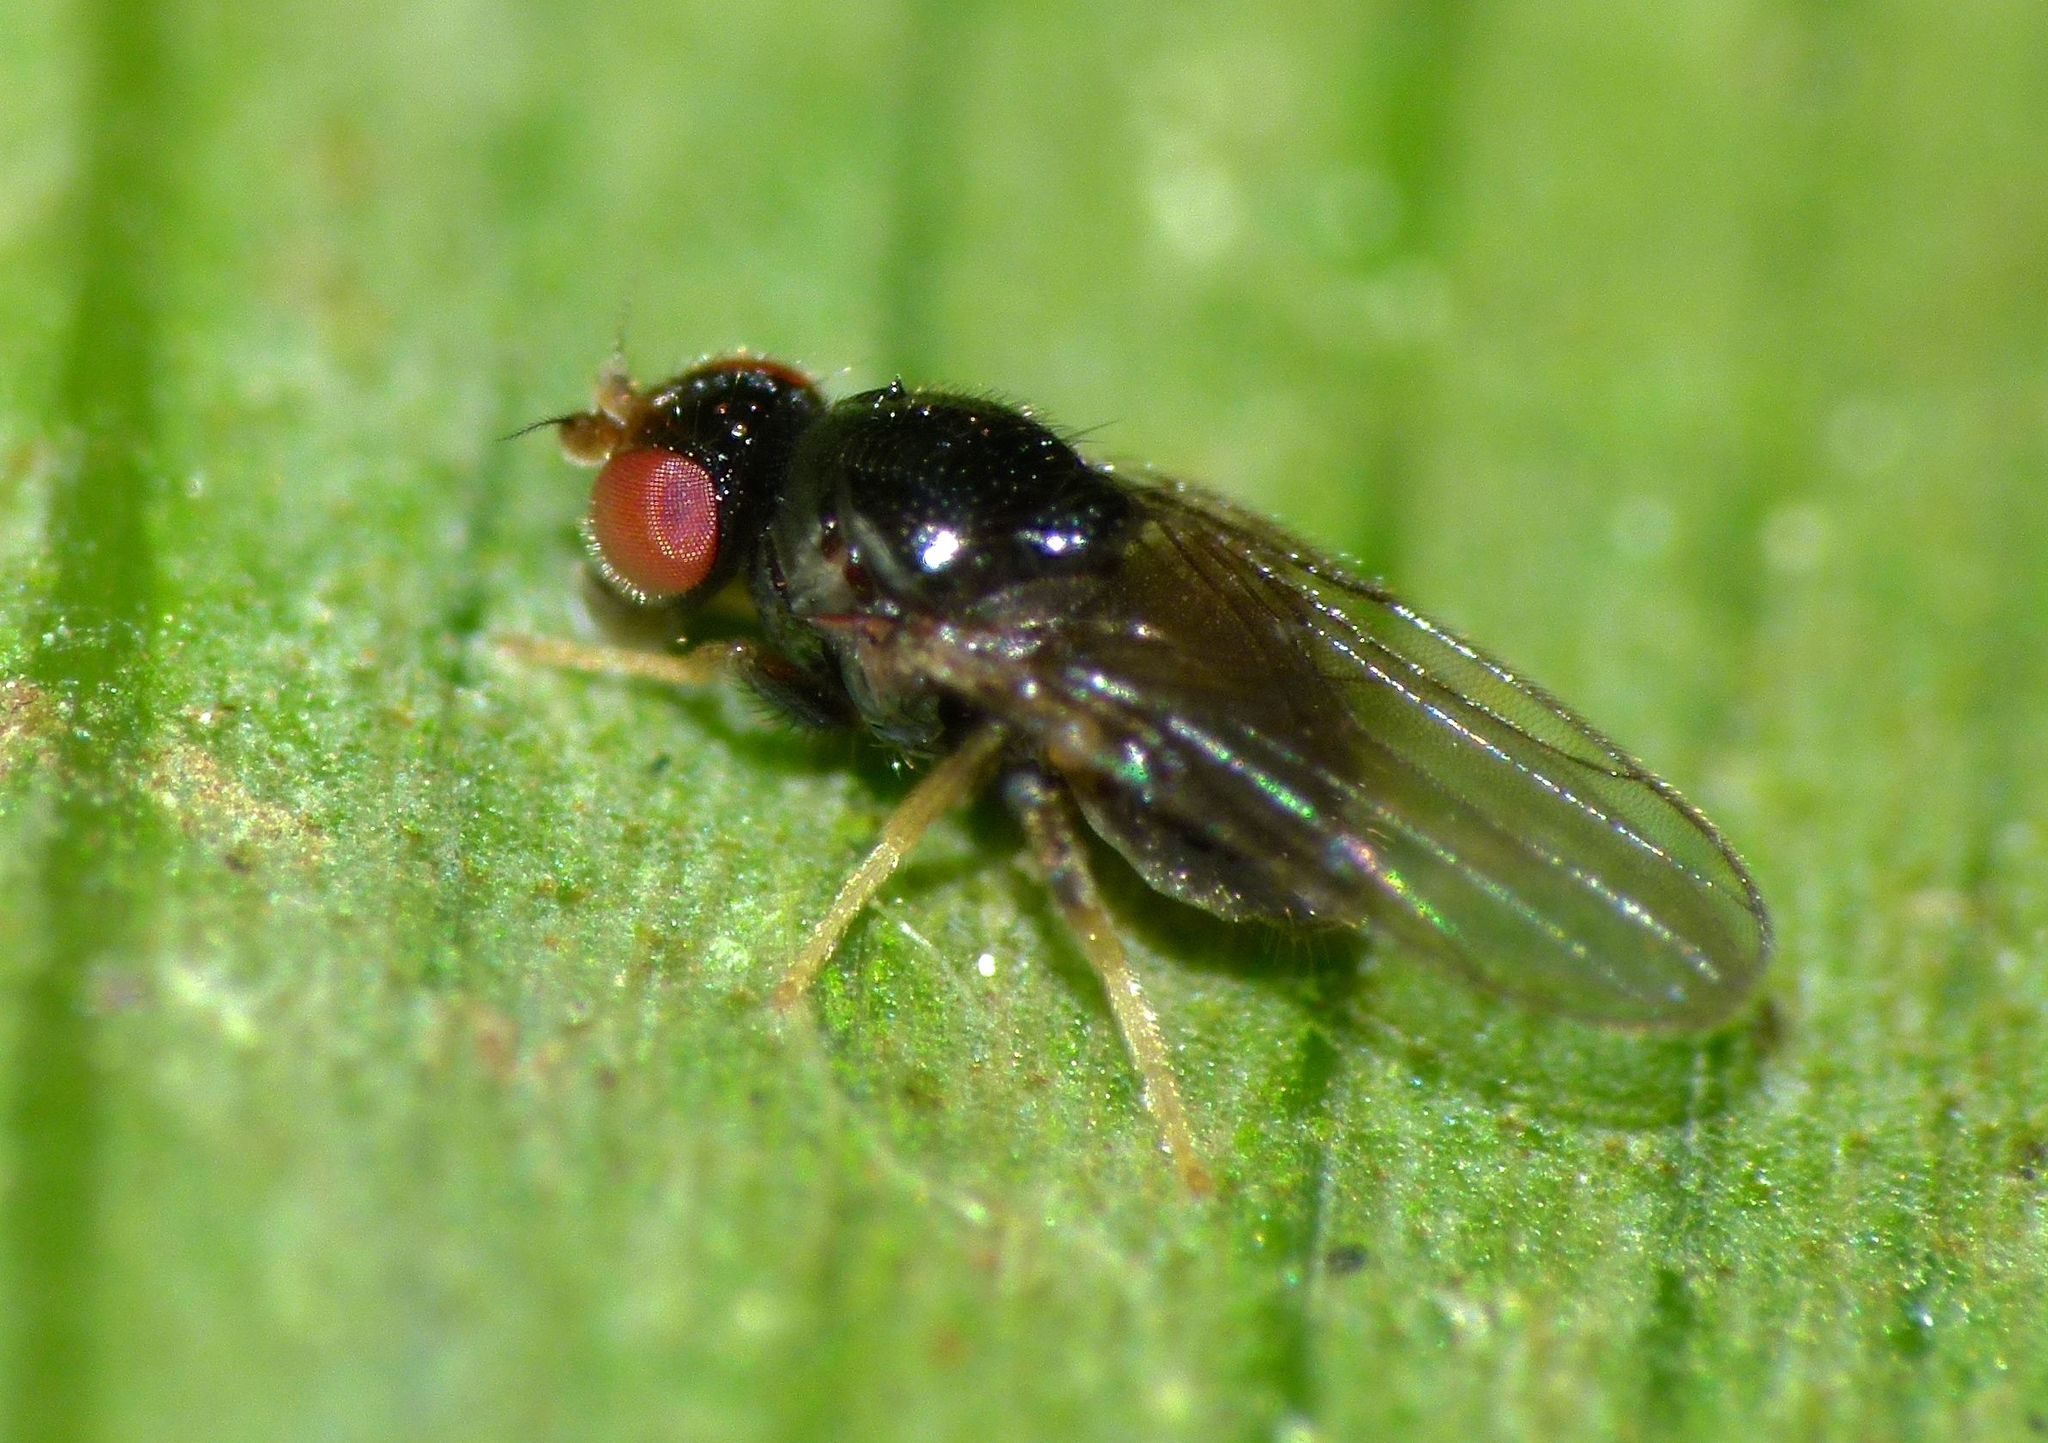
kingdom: Animalia
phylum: Arthropoda
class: Insecta
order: Diptera
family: Chloropidae
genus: Gaurax
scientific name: Gaurax neozealandicus
